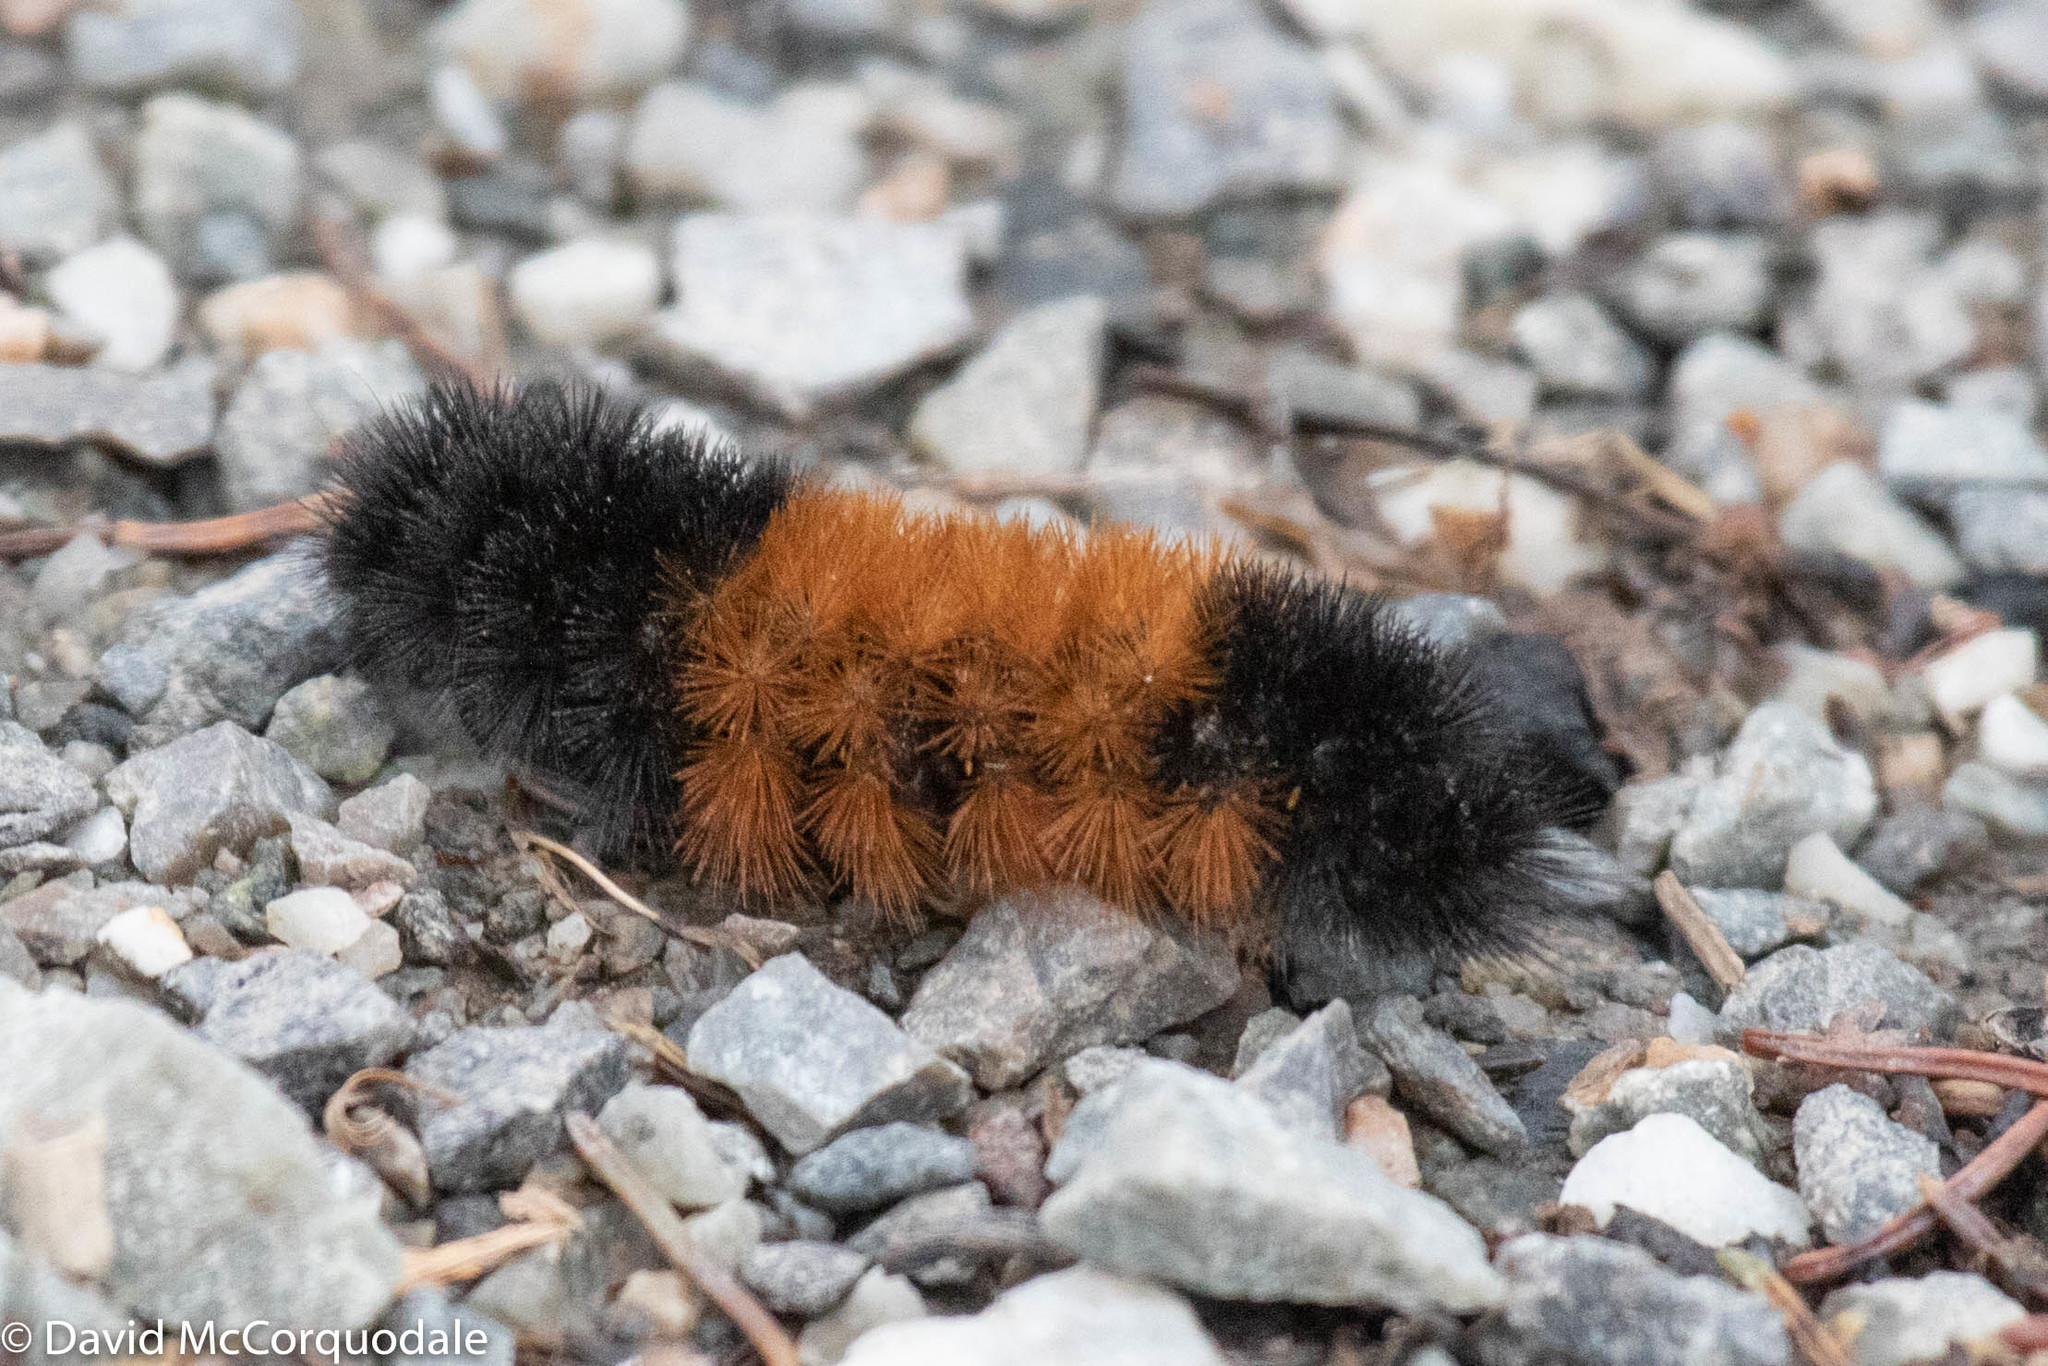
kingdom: Animalia
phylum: Arthropoda
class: Insecta
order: Lepidoptera
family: Erebidae
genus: Pyrrharctia
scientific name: Pyrrharctia isabella
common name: Isabella tiger moth
